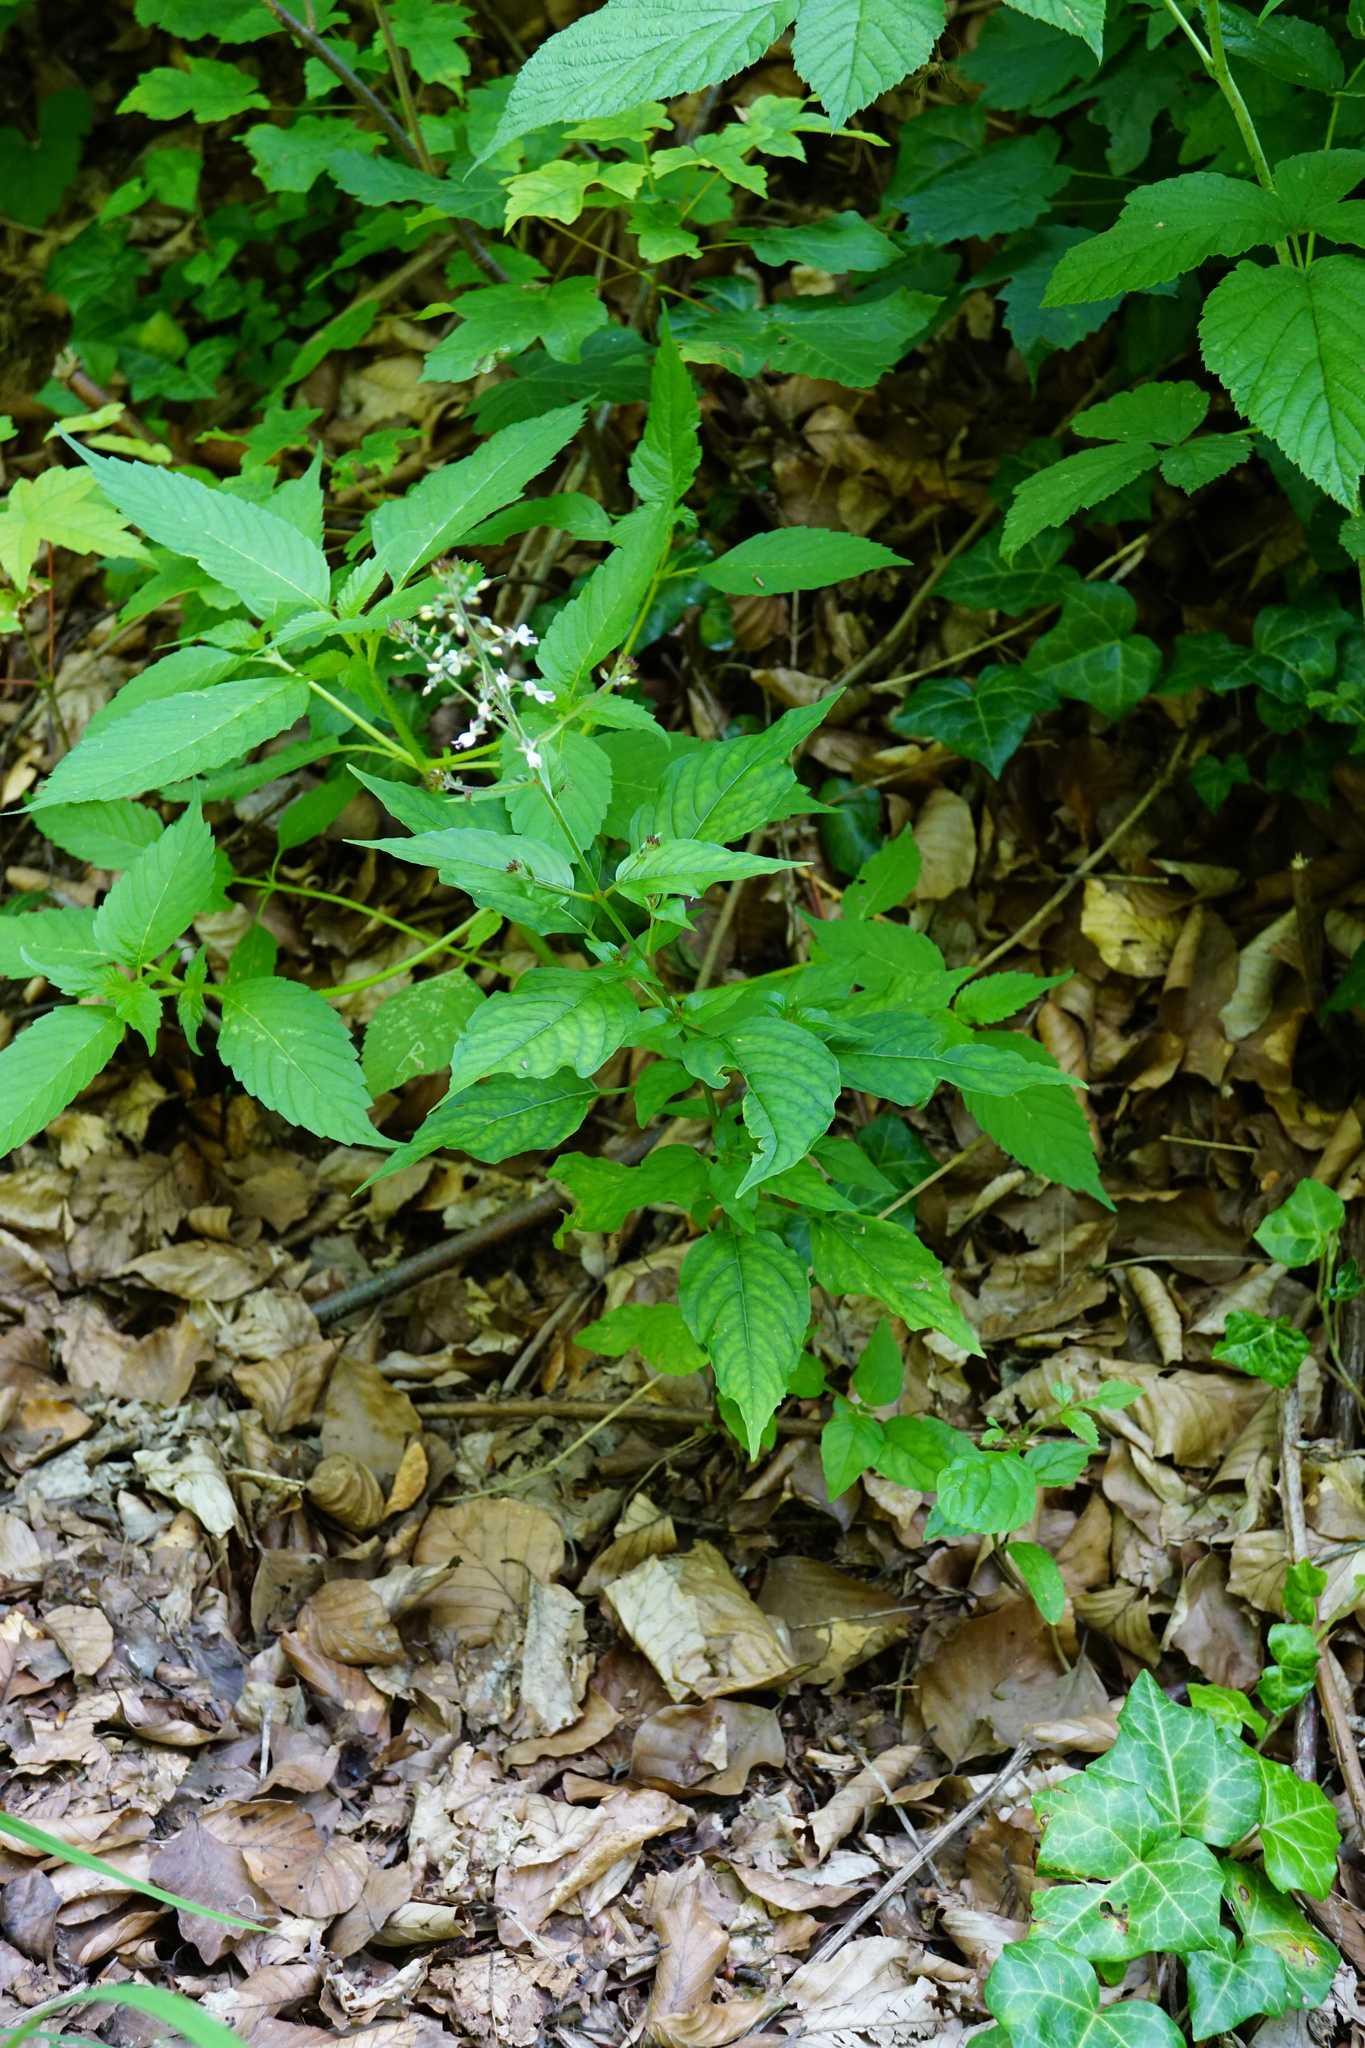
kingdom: Plantae
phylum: Tracheophyta
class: Magnoliopsida
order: Myrtales
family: Onagraceae
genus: Circaea
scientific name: Circaea lutetiana
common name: Enchanter's-nightshade
